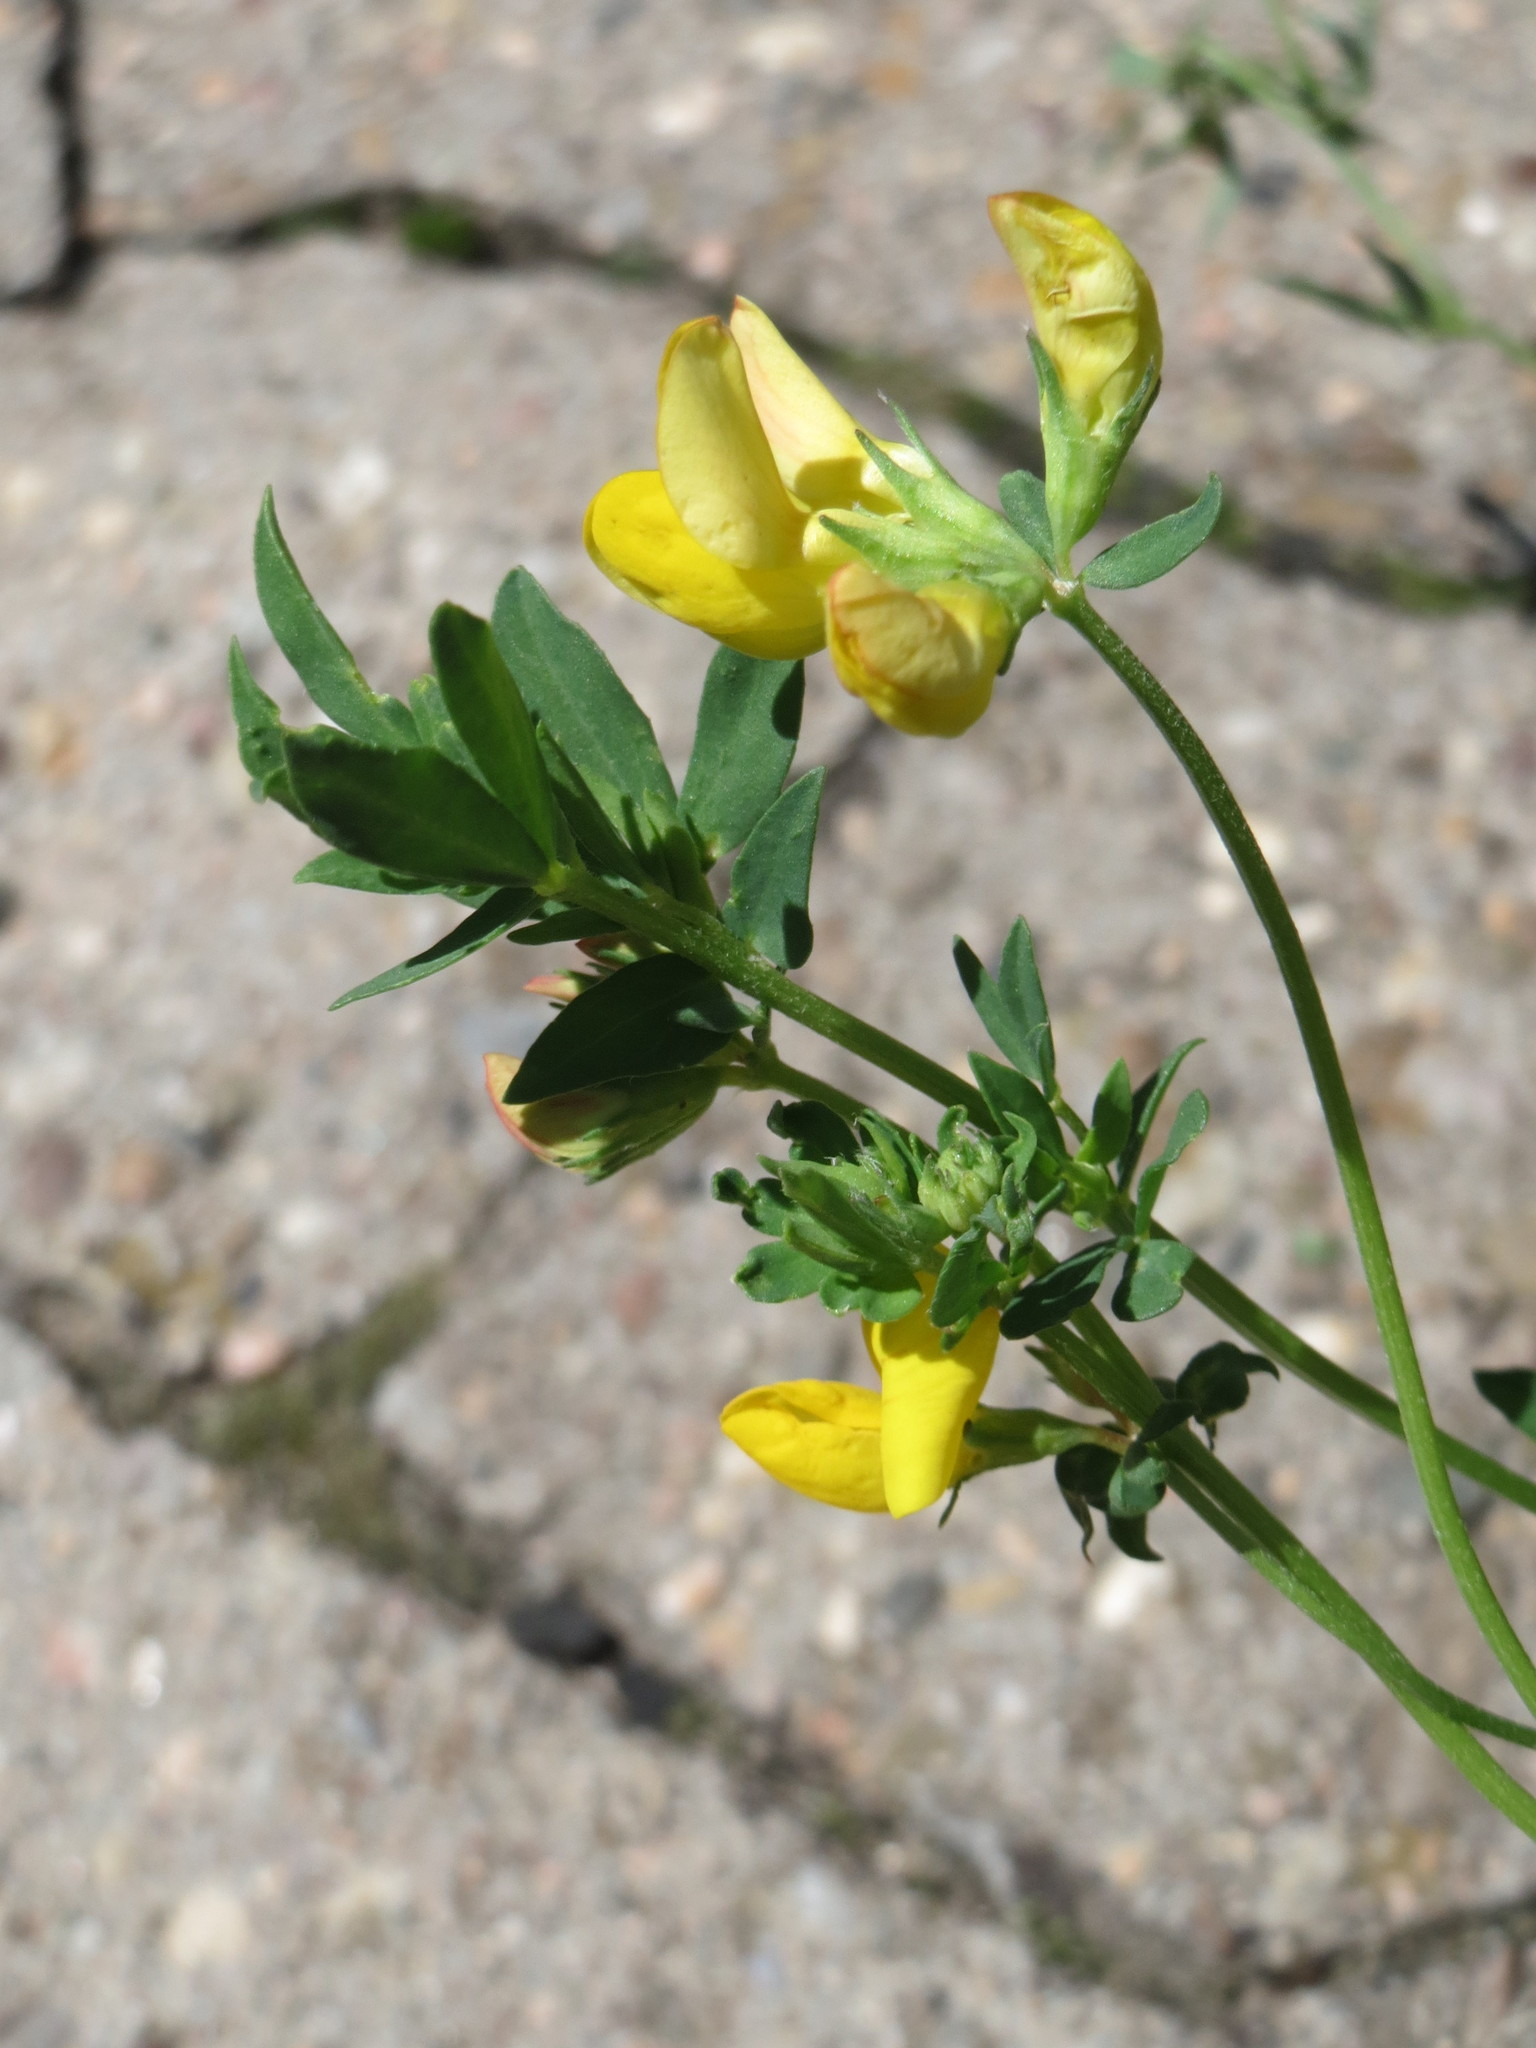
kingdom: Plantae
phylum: Tracheophyta
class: Magnoliopsida
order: Fabales
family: Fabaceae
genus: Lotus
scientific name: Lotus corniculatus
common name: Common bird's-foot-trefoil
